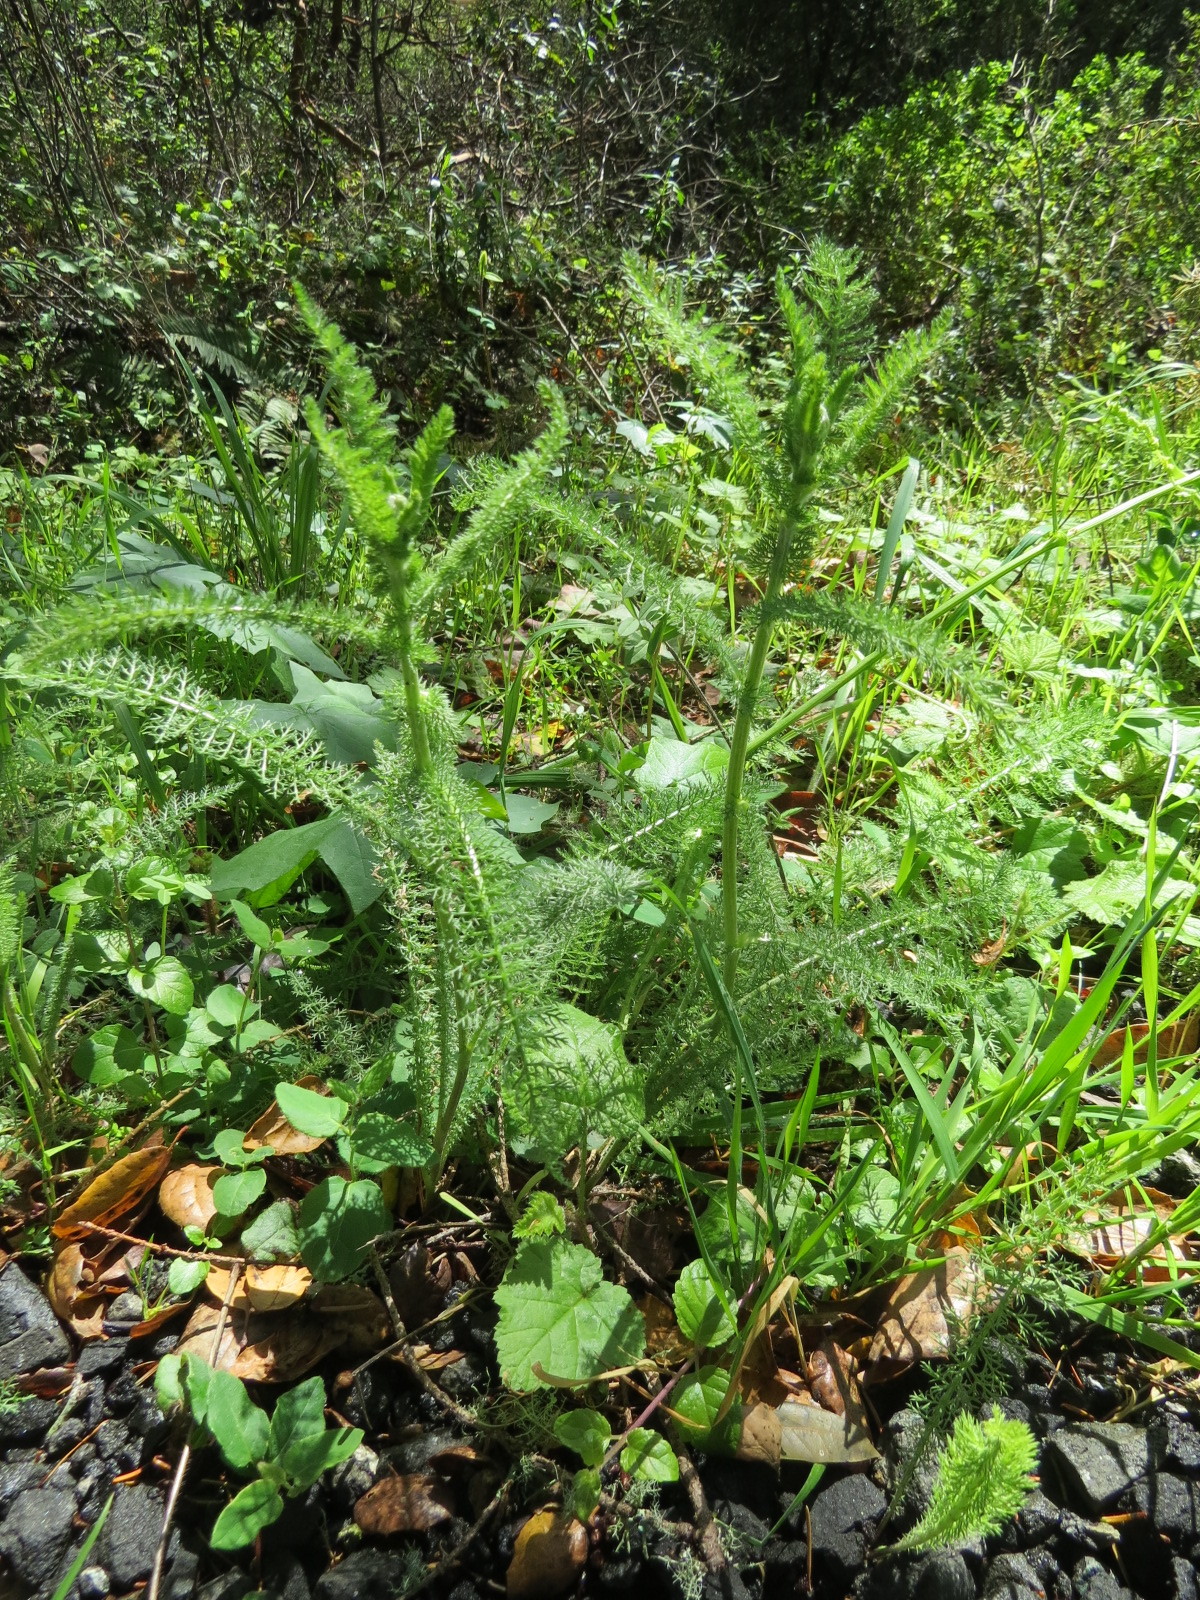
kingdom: Plantae
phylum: Tracheophyta
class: Magnoliopsida
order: Asterales
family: Asteraceae
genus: Achillea
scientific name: Achillea millefolium
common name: Yarrow
